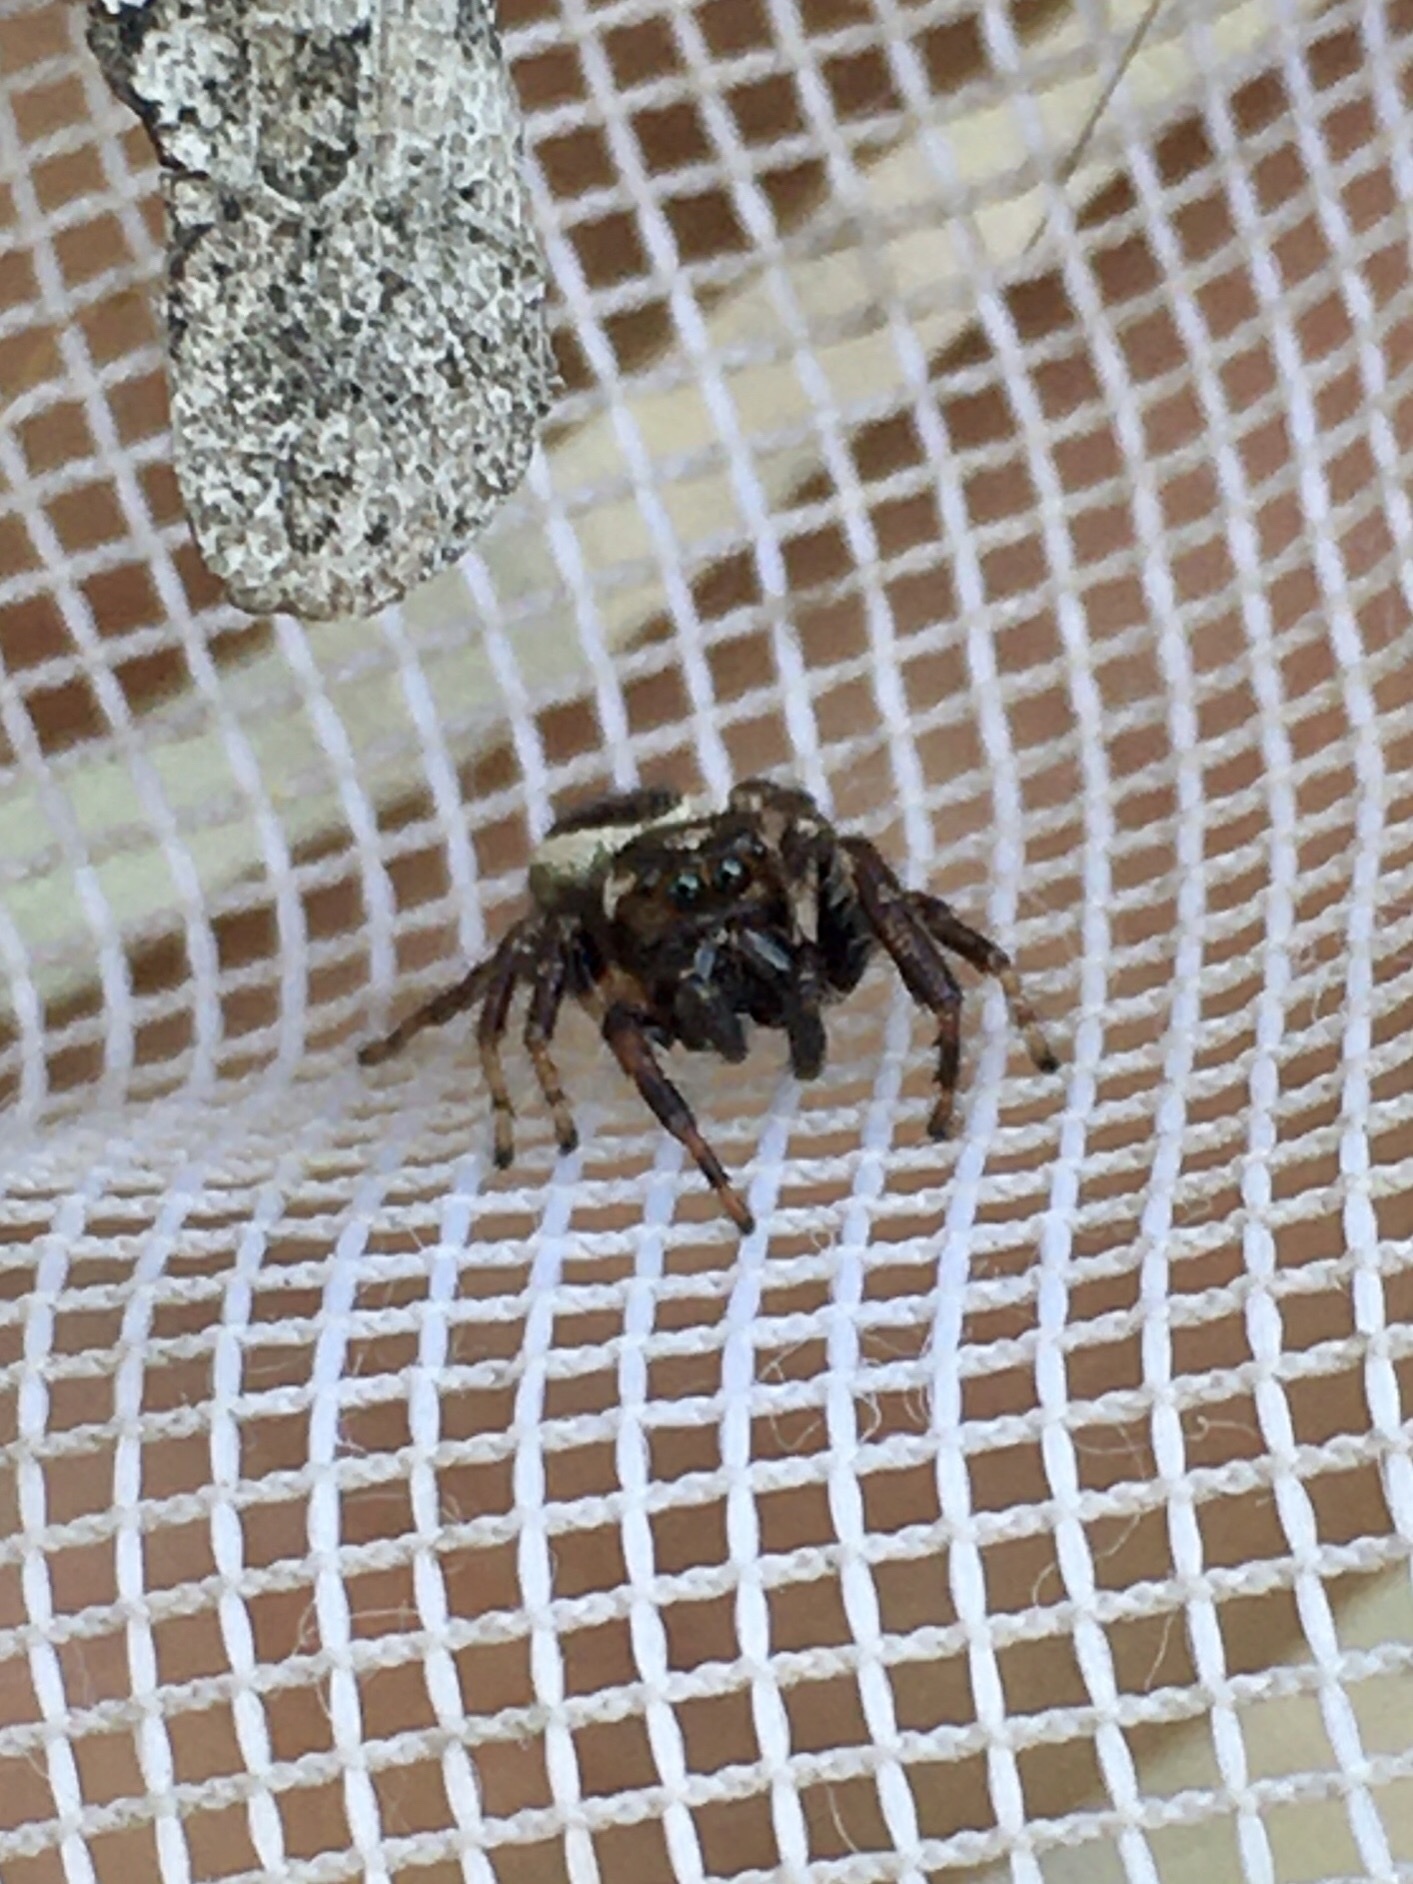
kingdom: Animalia
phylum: Arthropoda
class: Arachnida
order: Araneae
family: Salticidae
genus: Eris
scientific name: Eris militaris
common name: Bronze jumper
